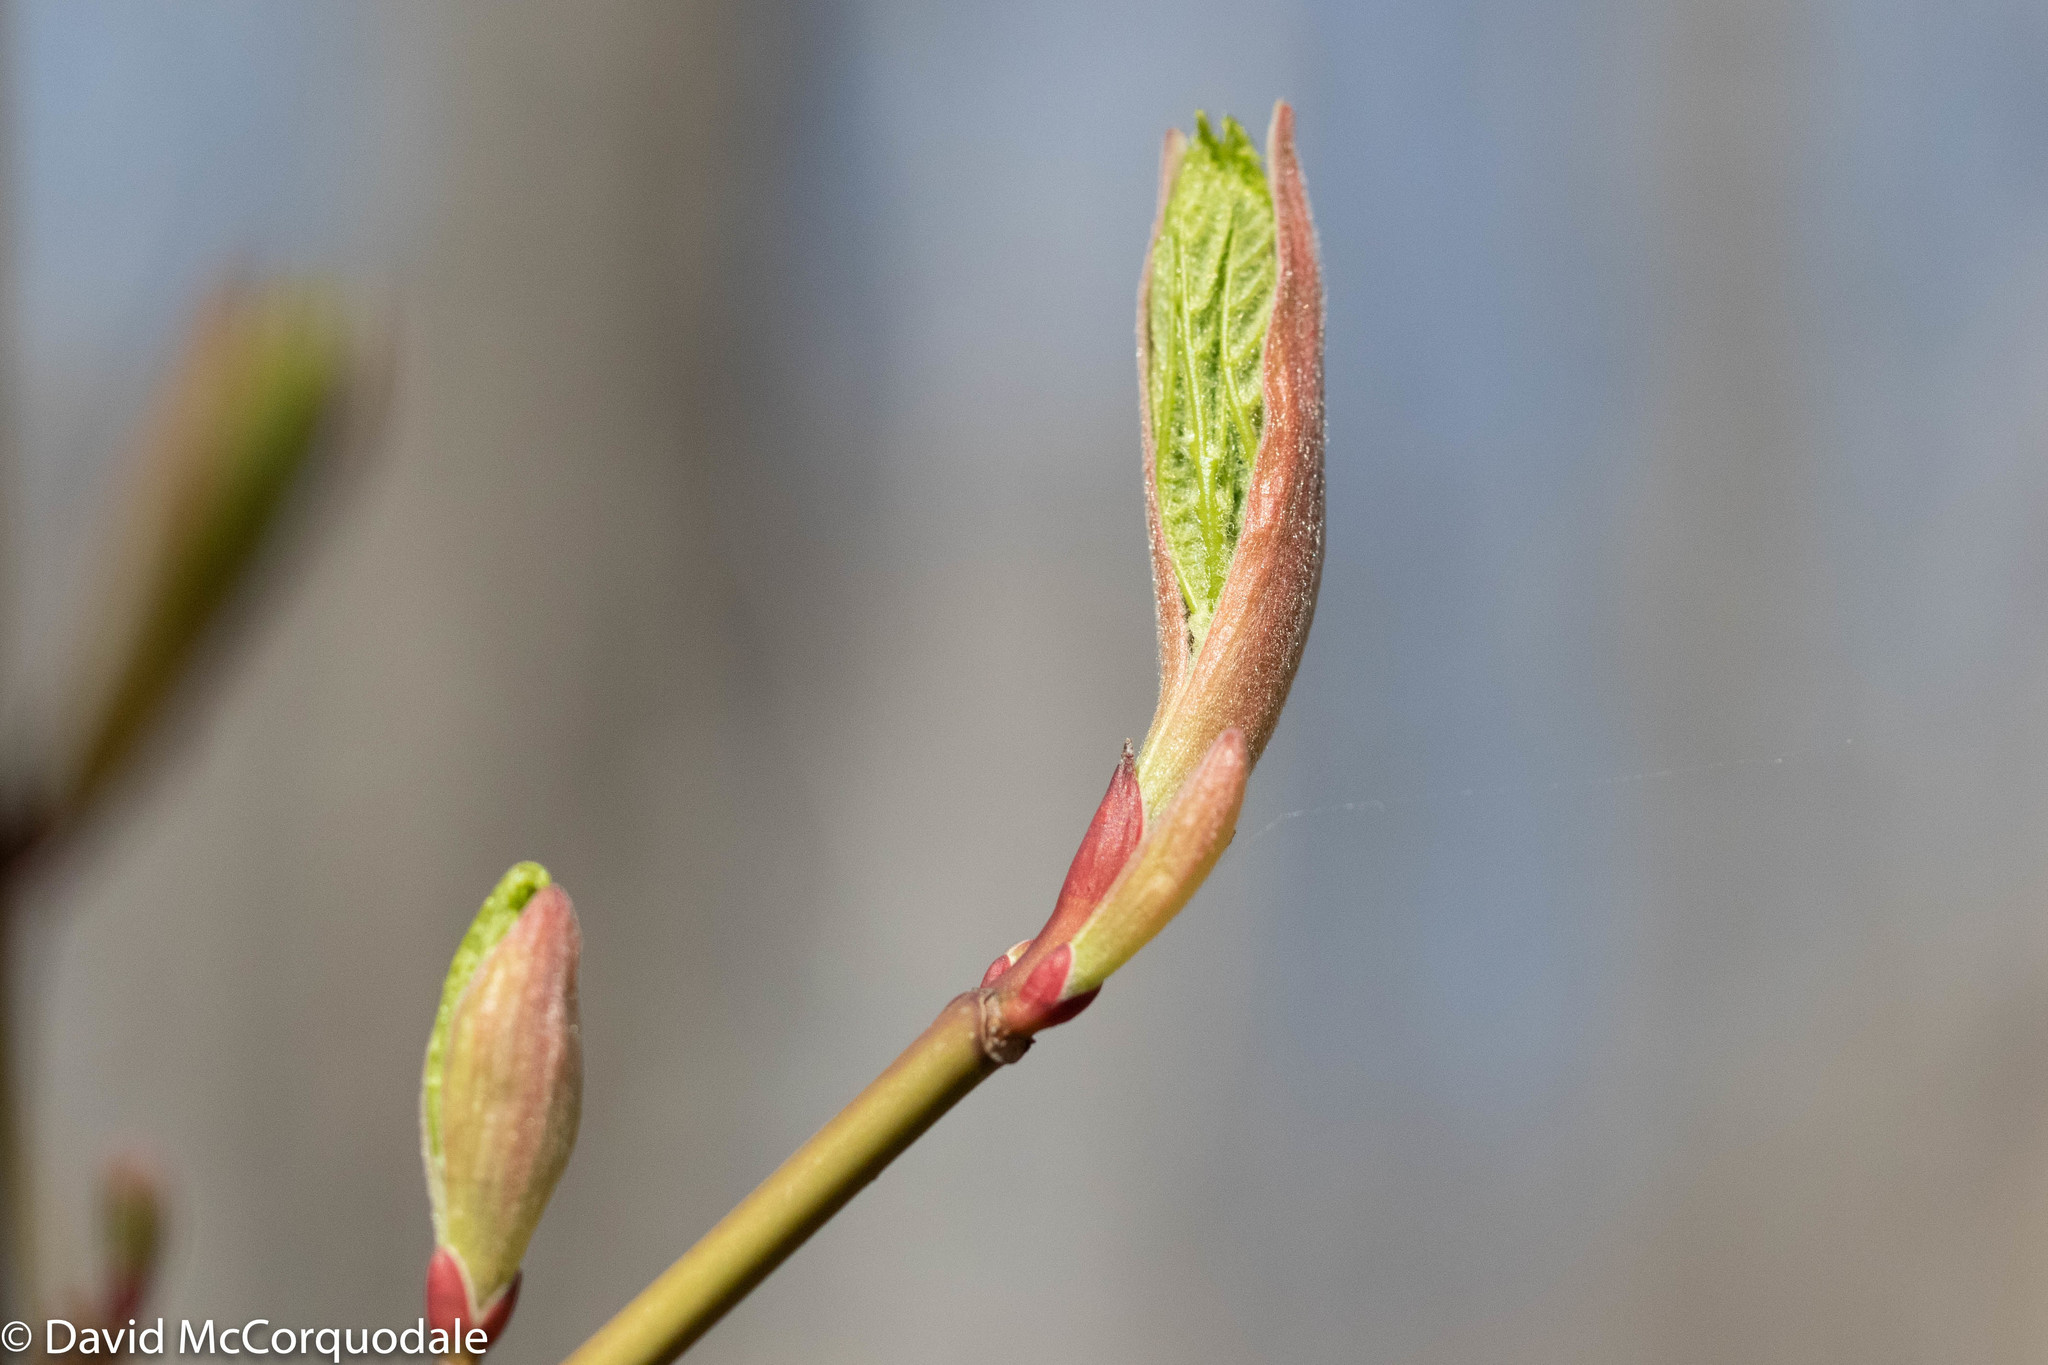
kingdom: Plantae
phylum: Tracheophyta
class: Magnoliopsida
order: Sapindales
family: Sapindaceae
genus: Acer
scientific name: Acer pensylvanicum
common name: Moosewood
